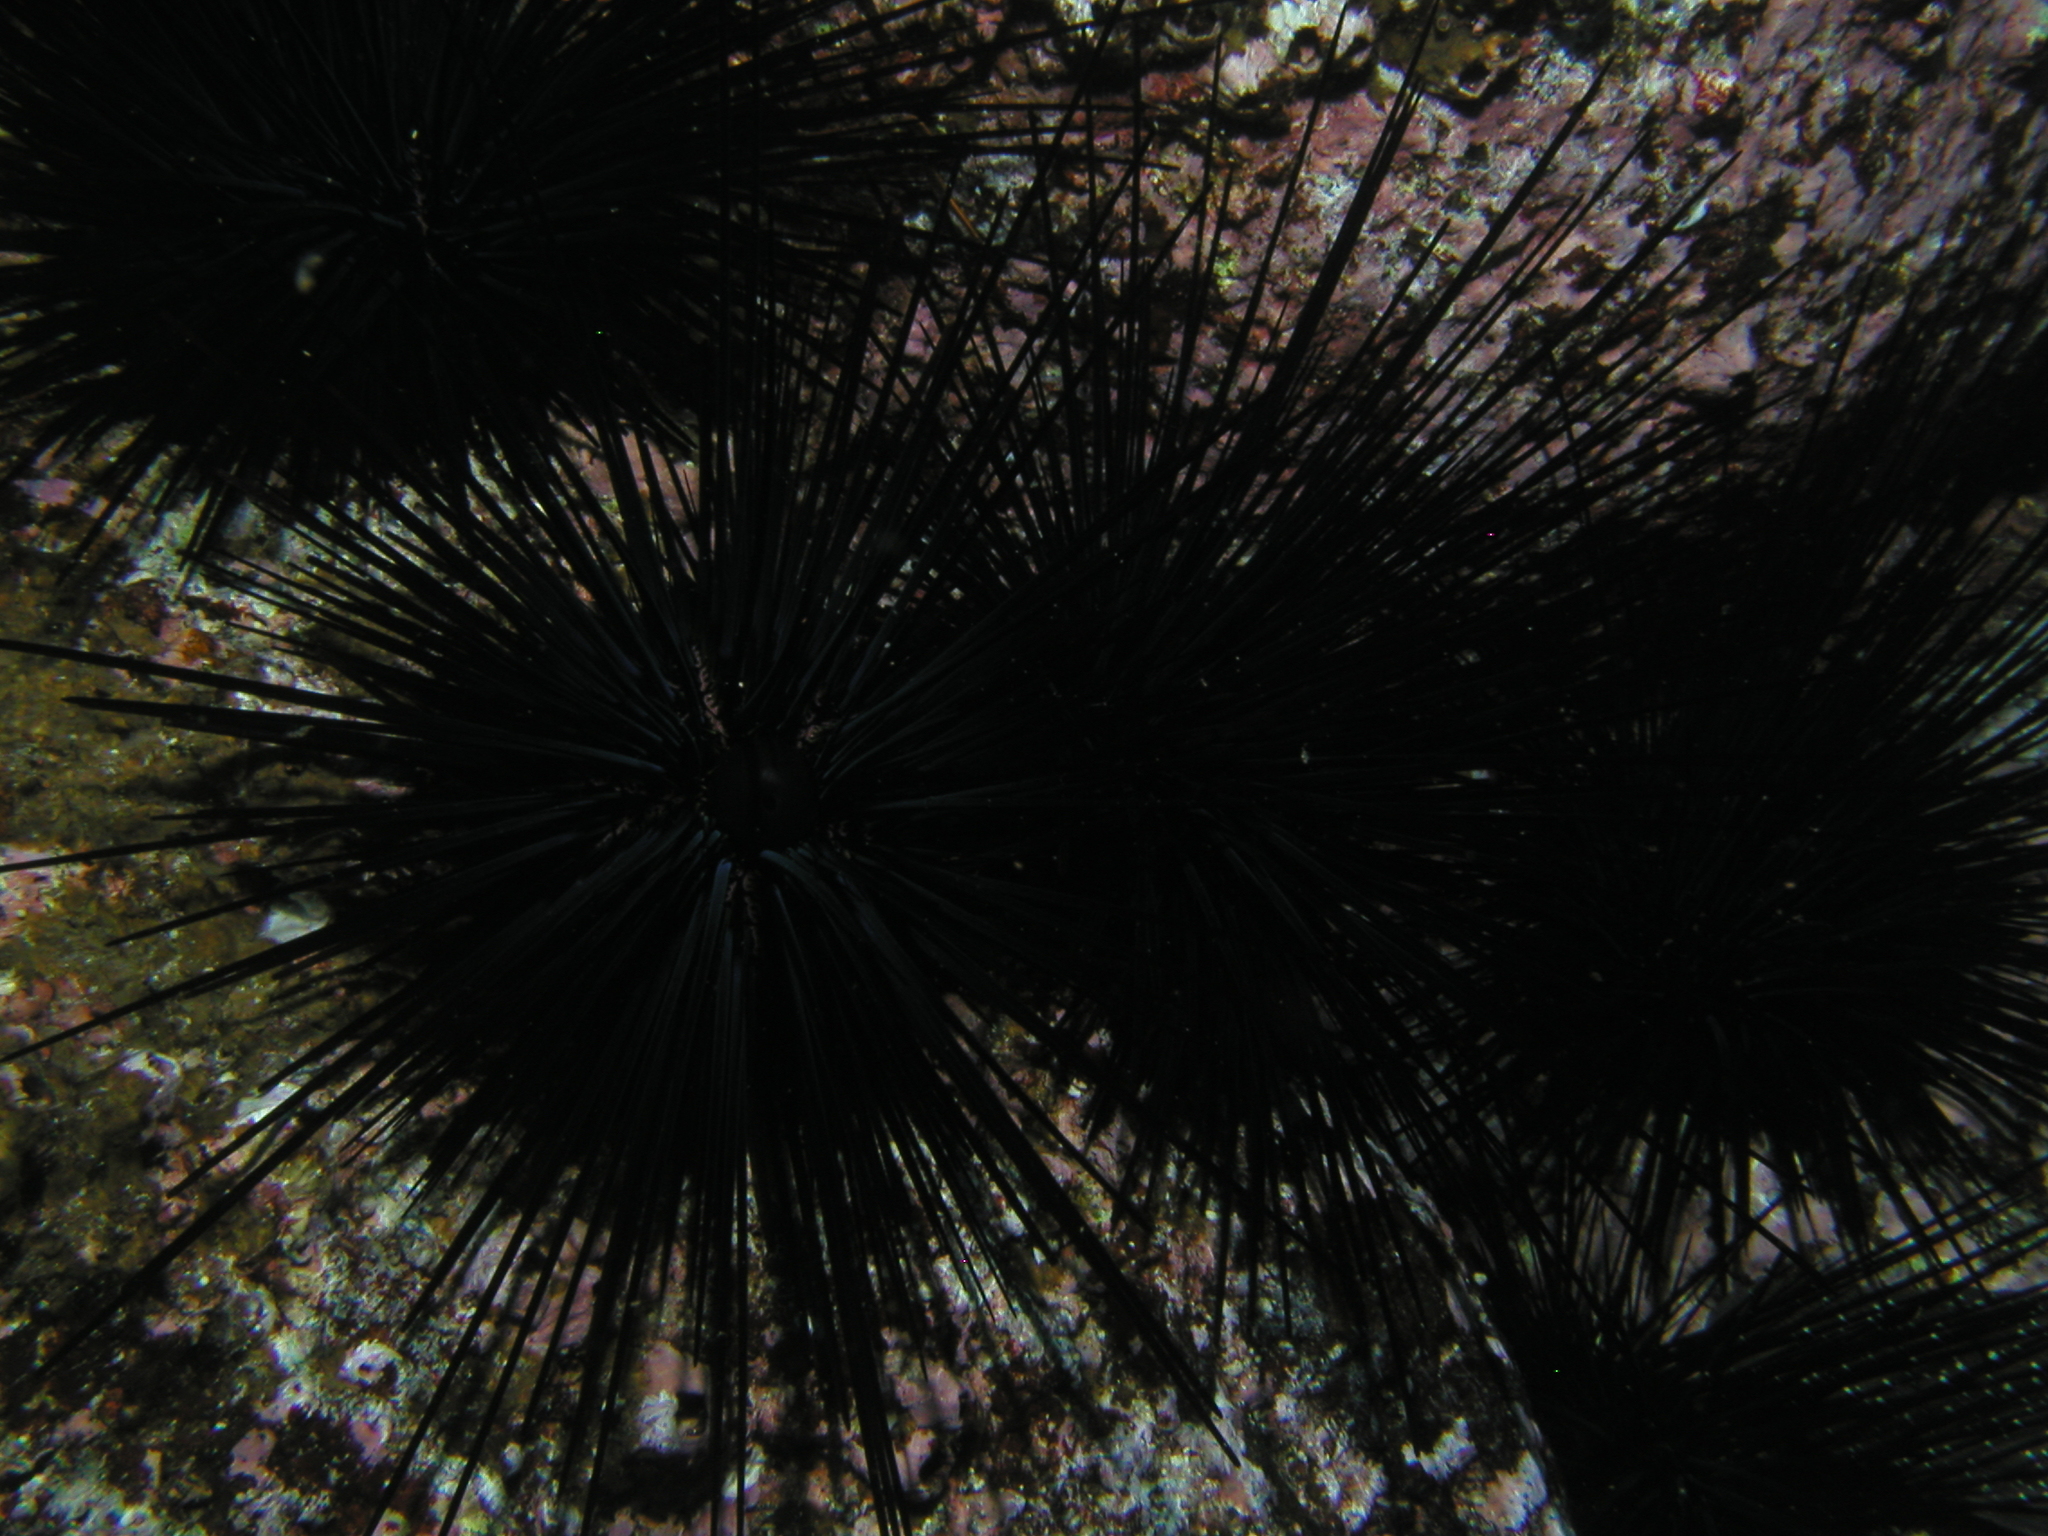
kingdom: Animalia
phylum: Echinodermata
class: Echinoidea
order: Diadematoida
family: Diadematidae
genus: Diadema
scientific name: Diadema mexicanum
